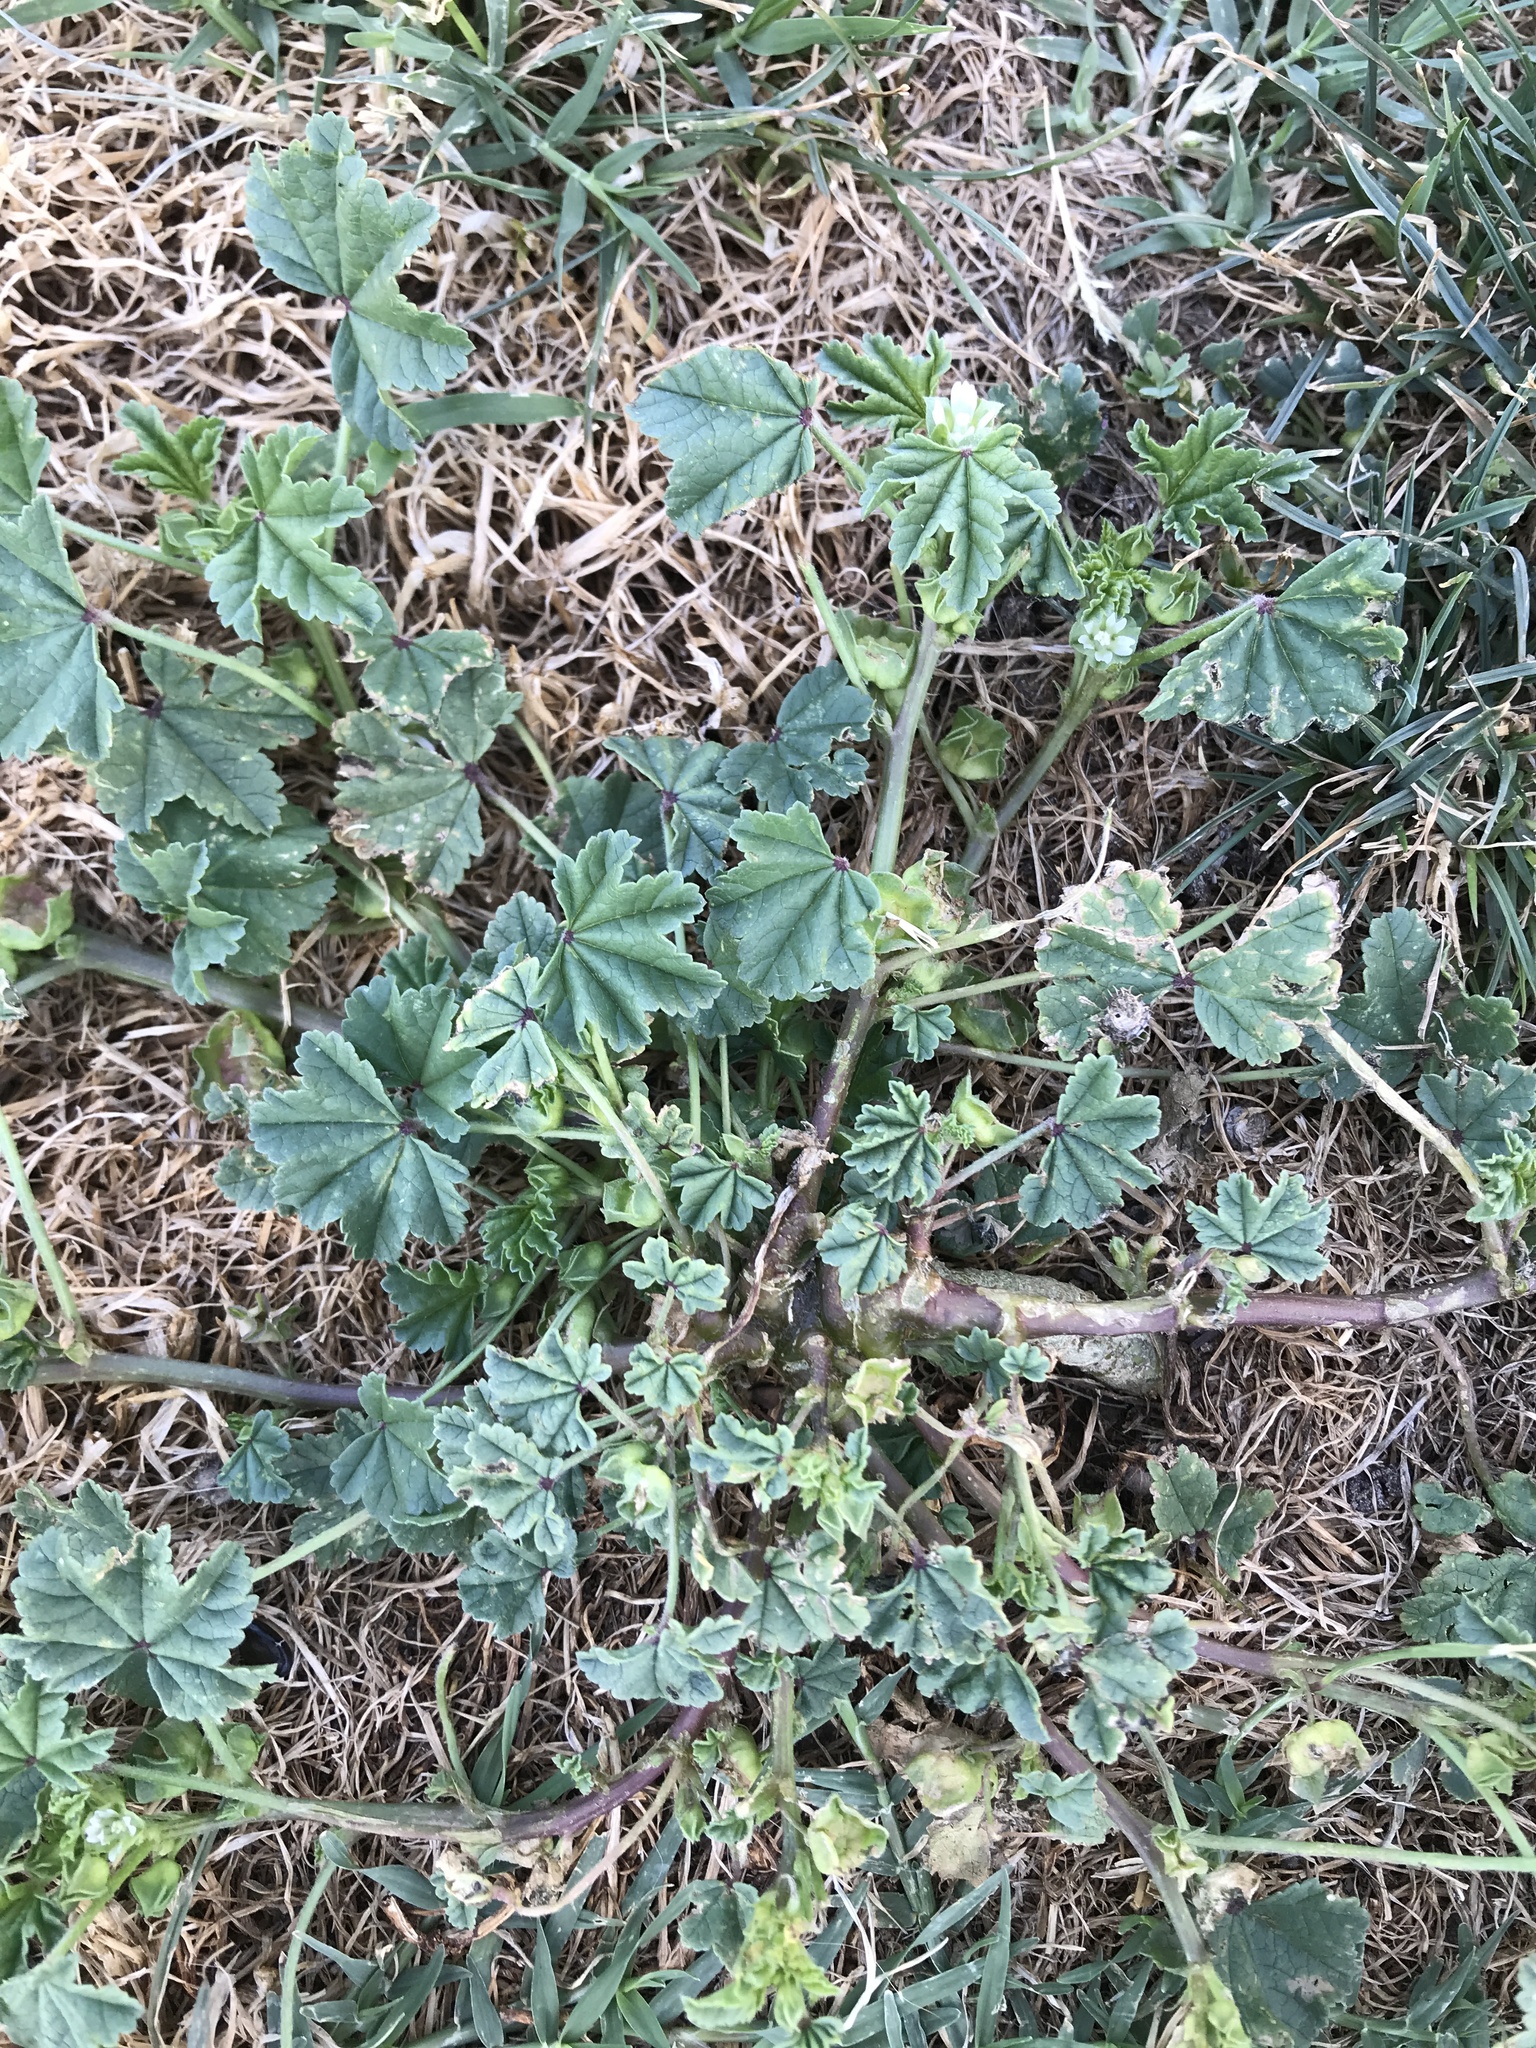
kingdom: Plantae
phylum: Tracheophyta
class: Magnoliopsida
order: Malvales
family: Malvaceae
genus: Malva
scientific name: Malva parviflora
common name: Least mallow
